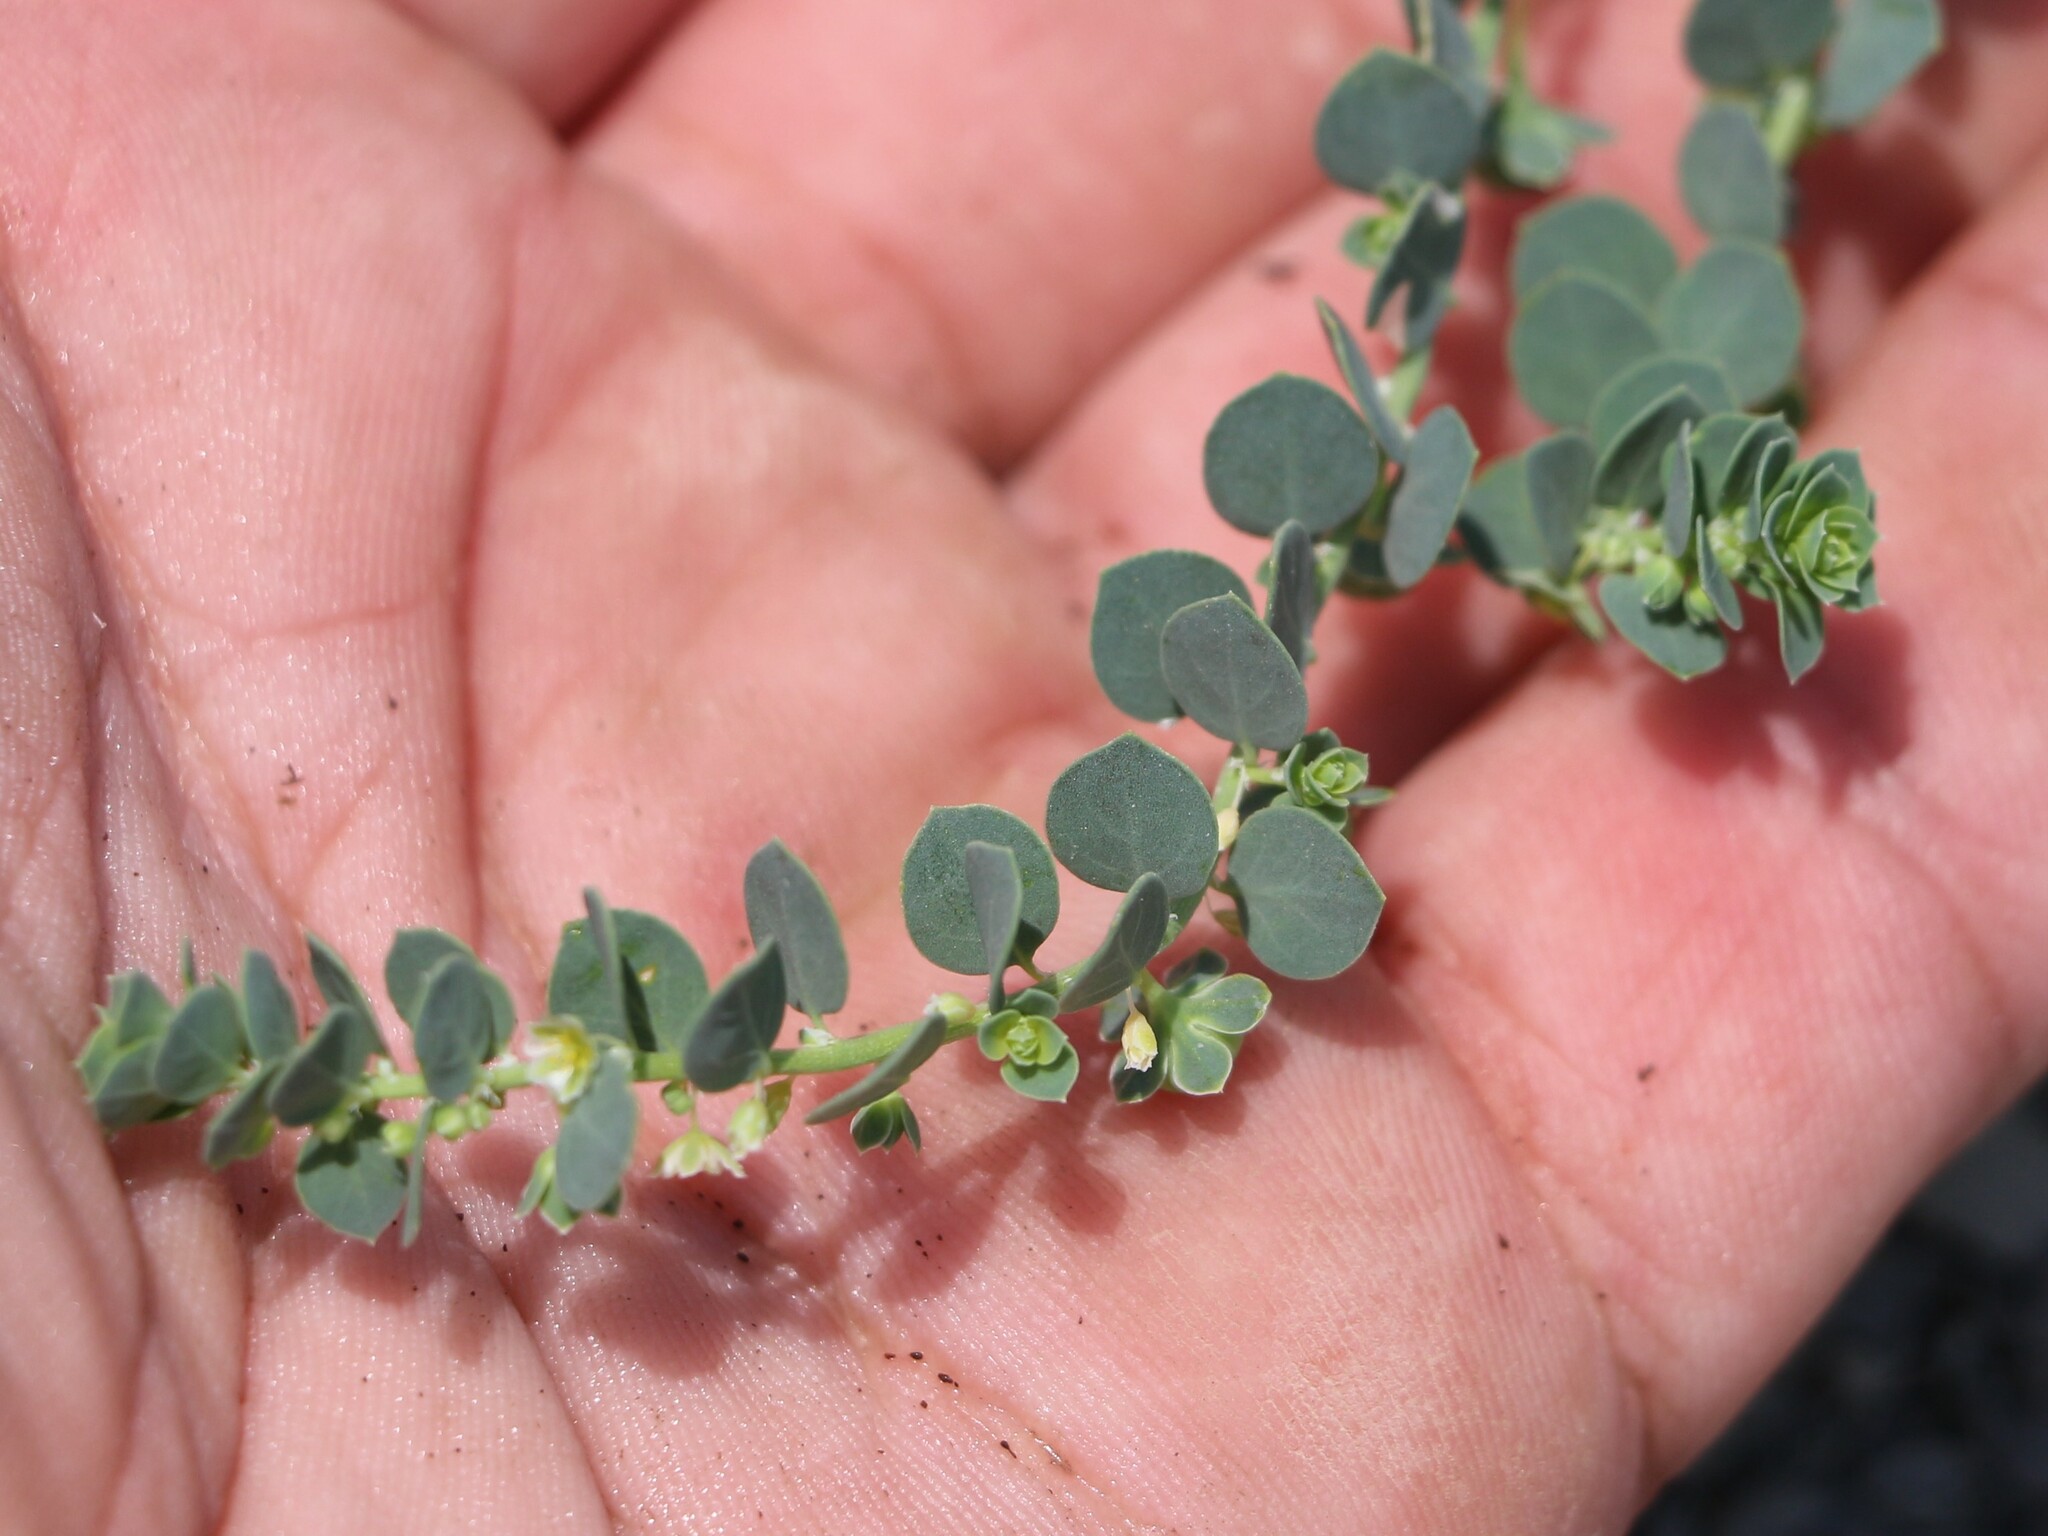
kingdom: Plantae
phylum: Tracheophyta
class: Magnoliopsida
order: Malpighiales
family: Phyllanthaceae
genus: Andrachne
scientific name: Andrachne telephioides
